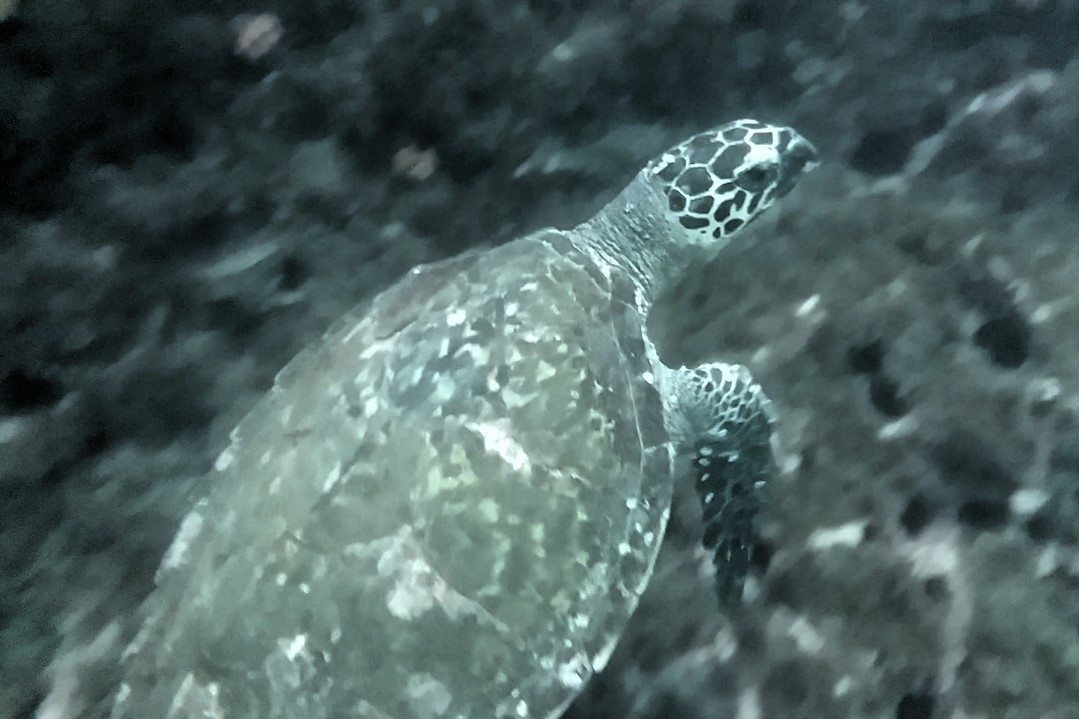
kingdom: Animalia
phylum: Chordata
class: Testudines
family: Cheloniidae
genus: Eretmochelys
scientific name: Eretmochelys imbricata
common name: Hawksbill turtle
